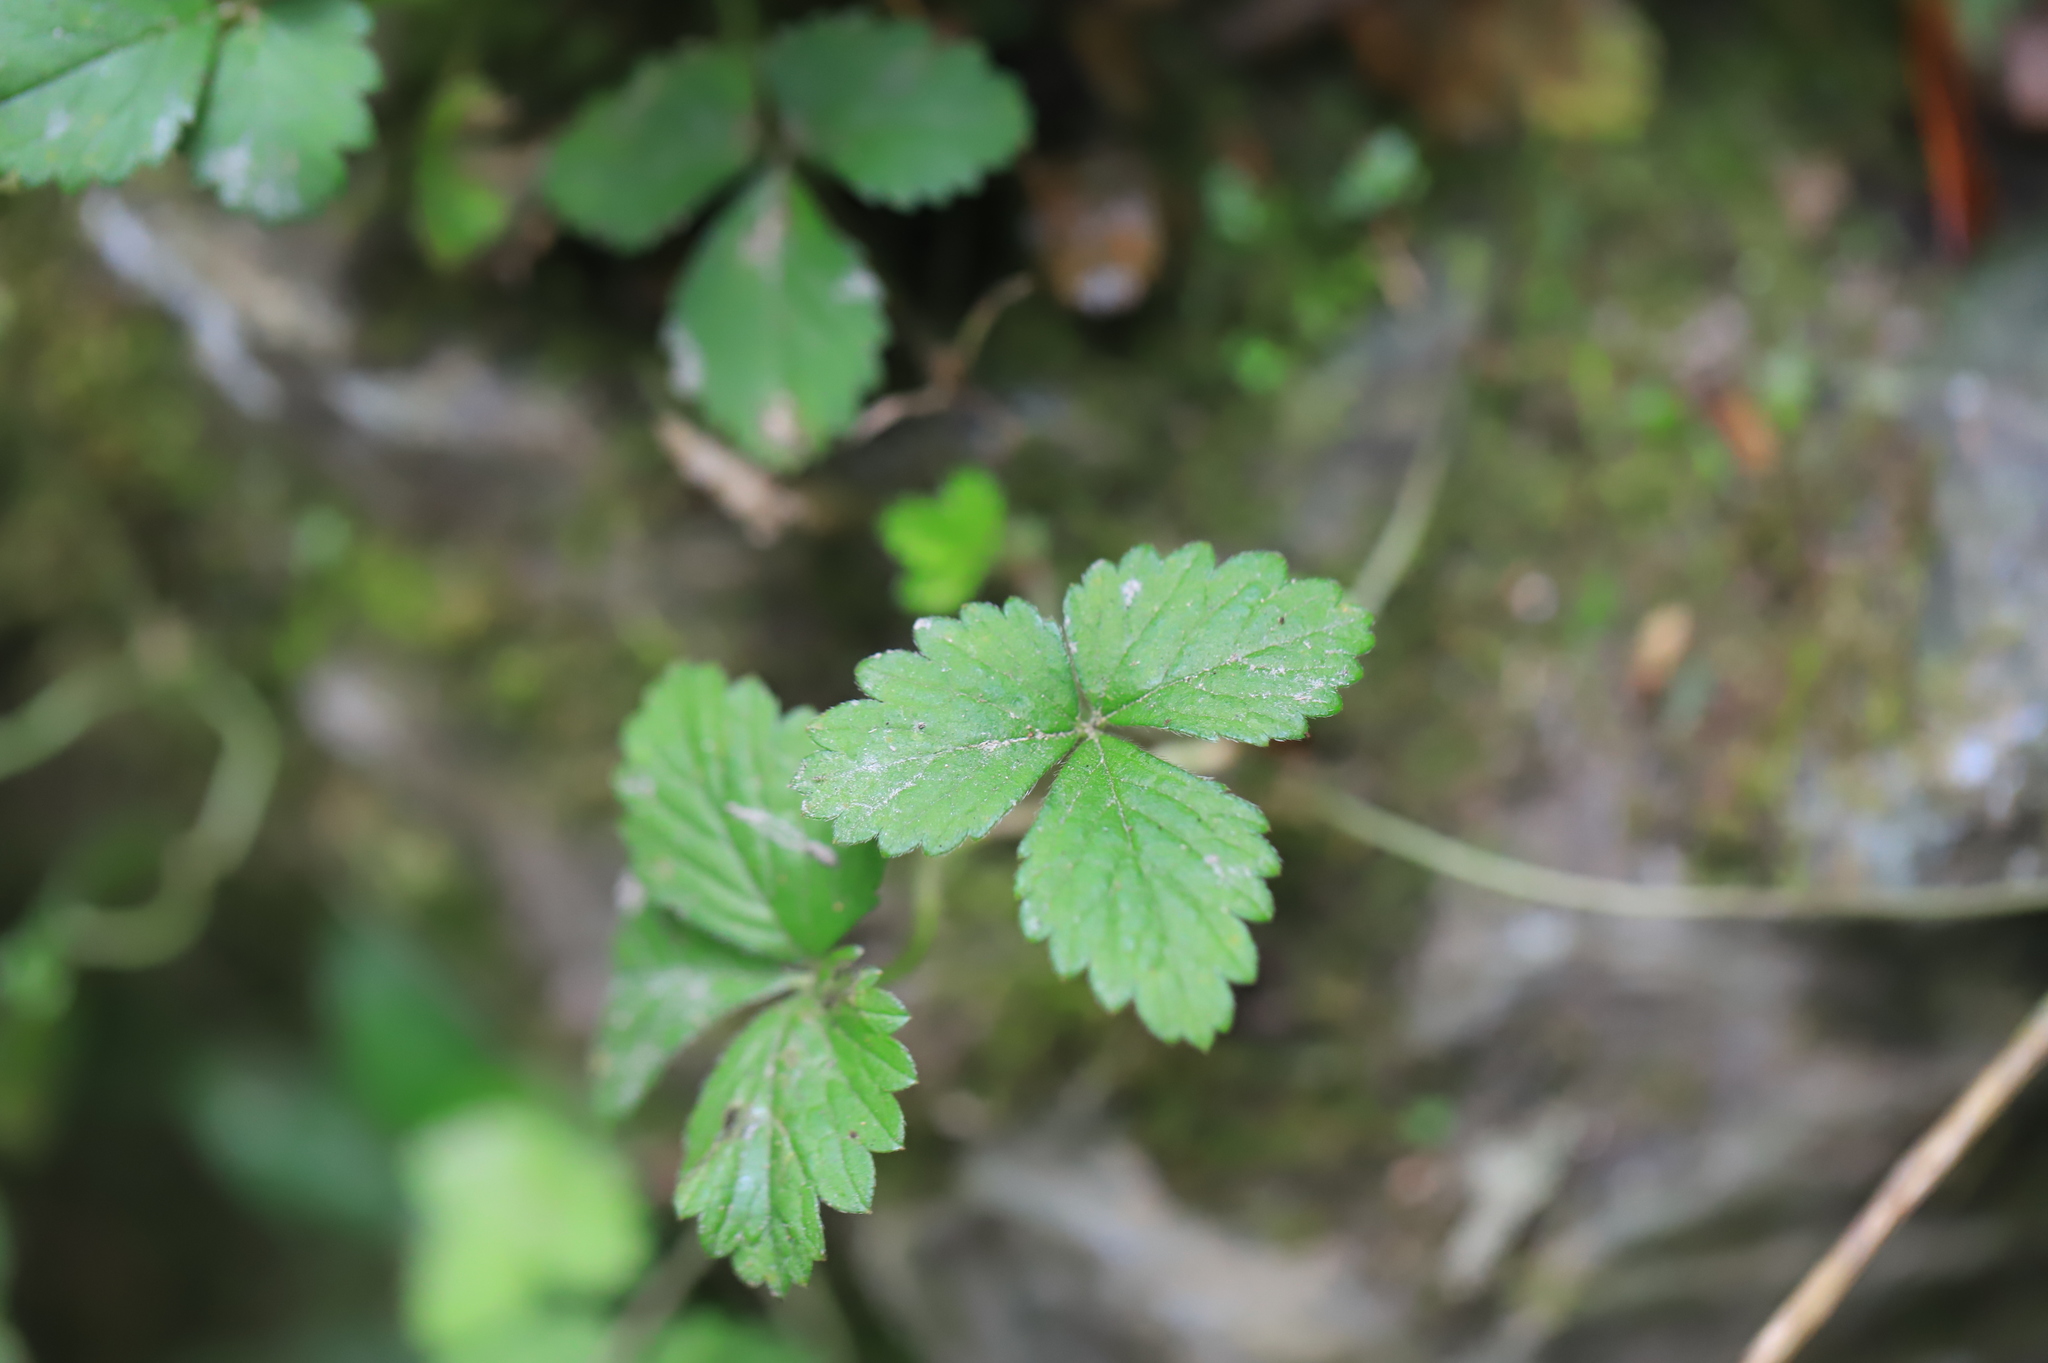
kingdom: Plantae
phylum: Tracheophyta
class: Magnoliopsida
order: Rosales
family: Rosaceae
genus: Potentilla
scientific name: Potentilla indica
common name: Yellow-flowered strawberry
